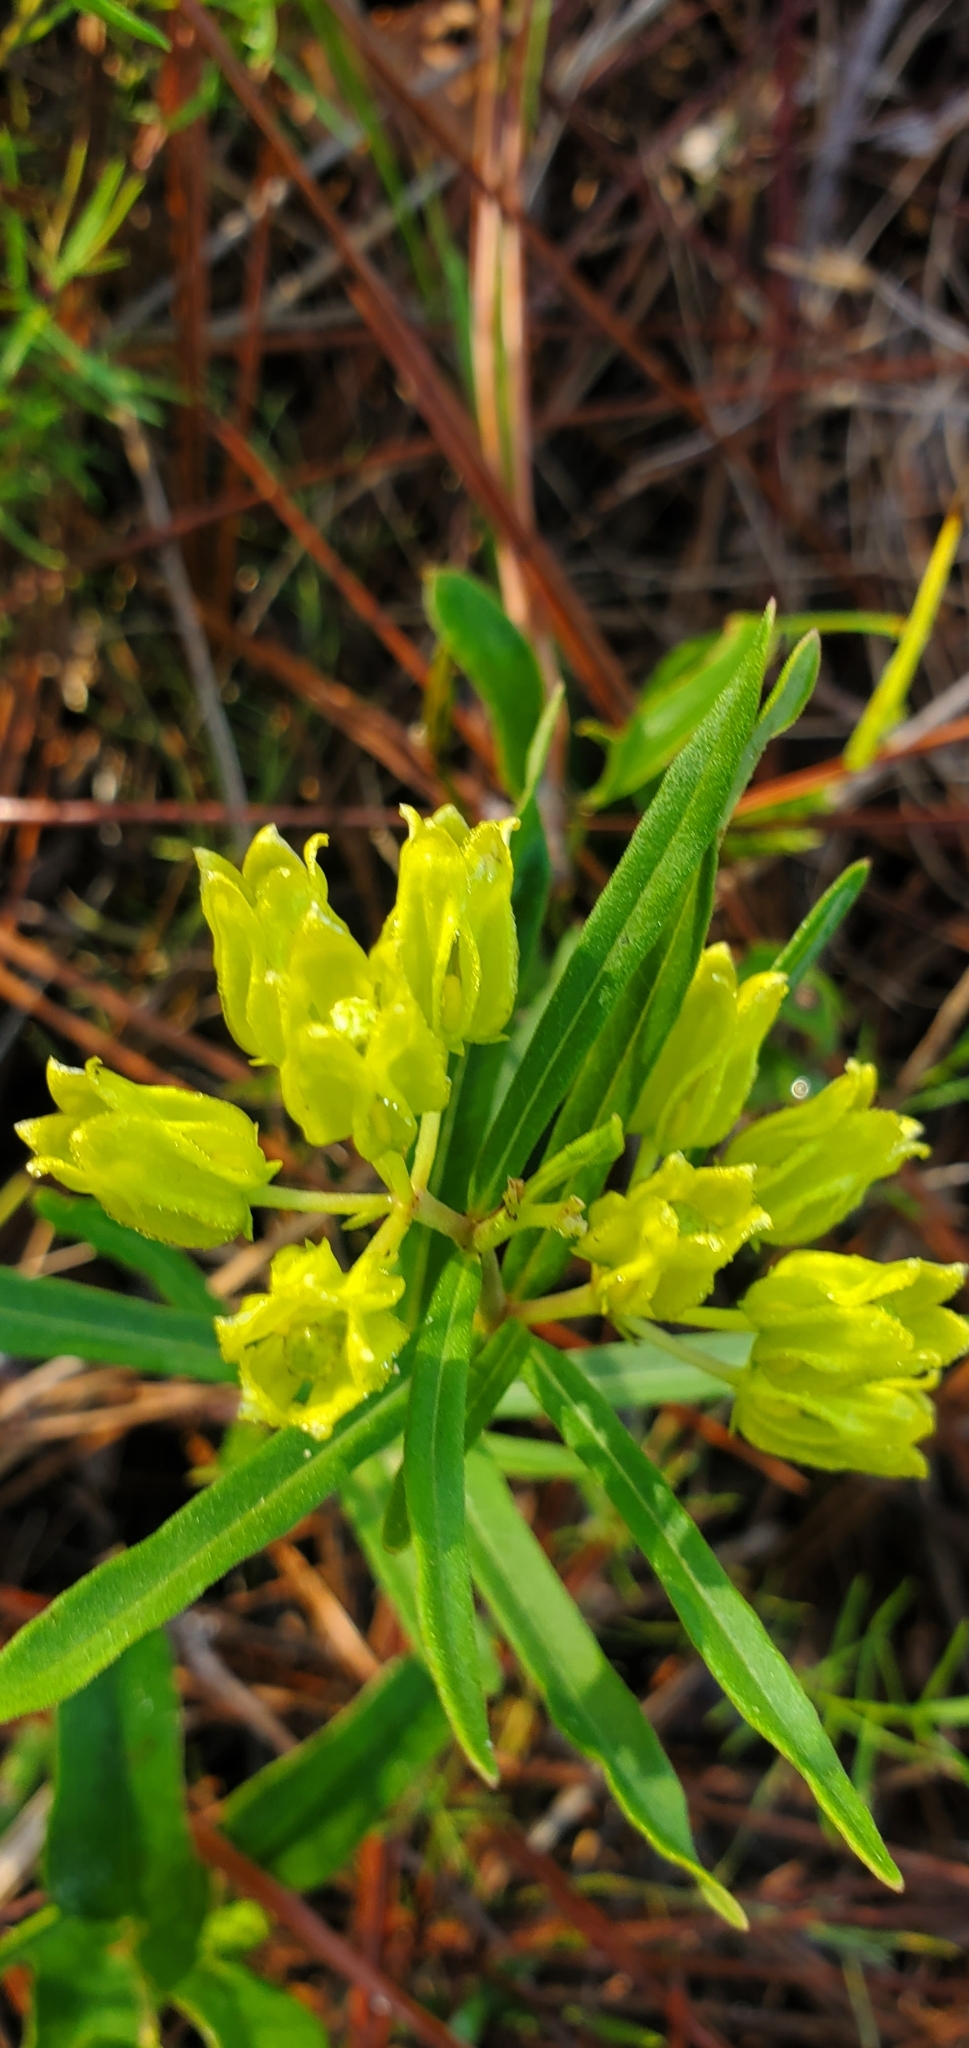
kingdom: Plantae
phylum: Tracheophyta
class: Magnoliopsida
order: Gentianales
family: Apocynaceae
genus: Asclepias
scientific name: Asclepias pedicellata
